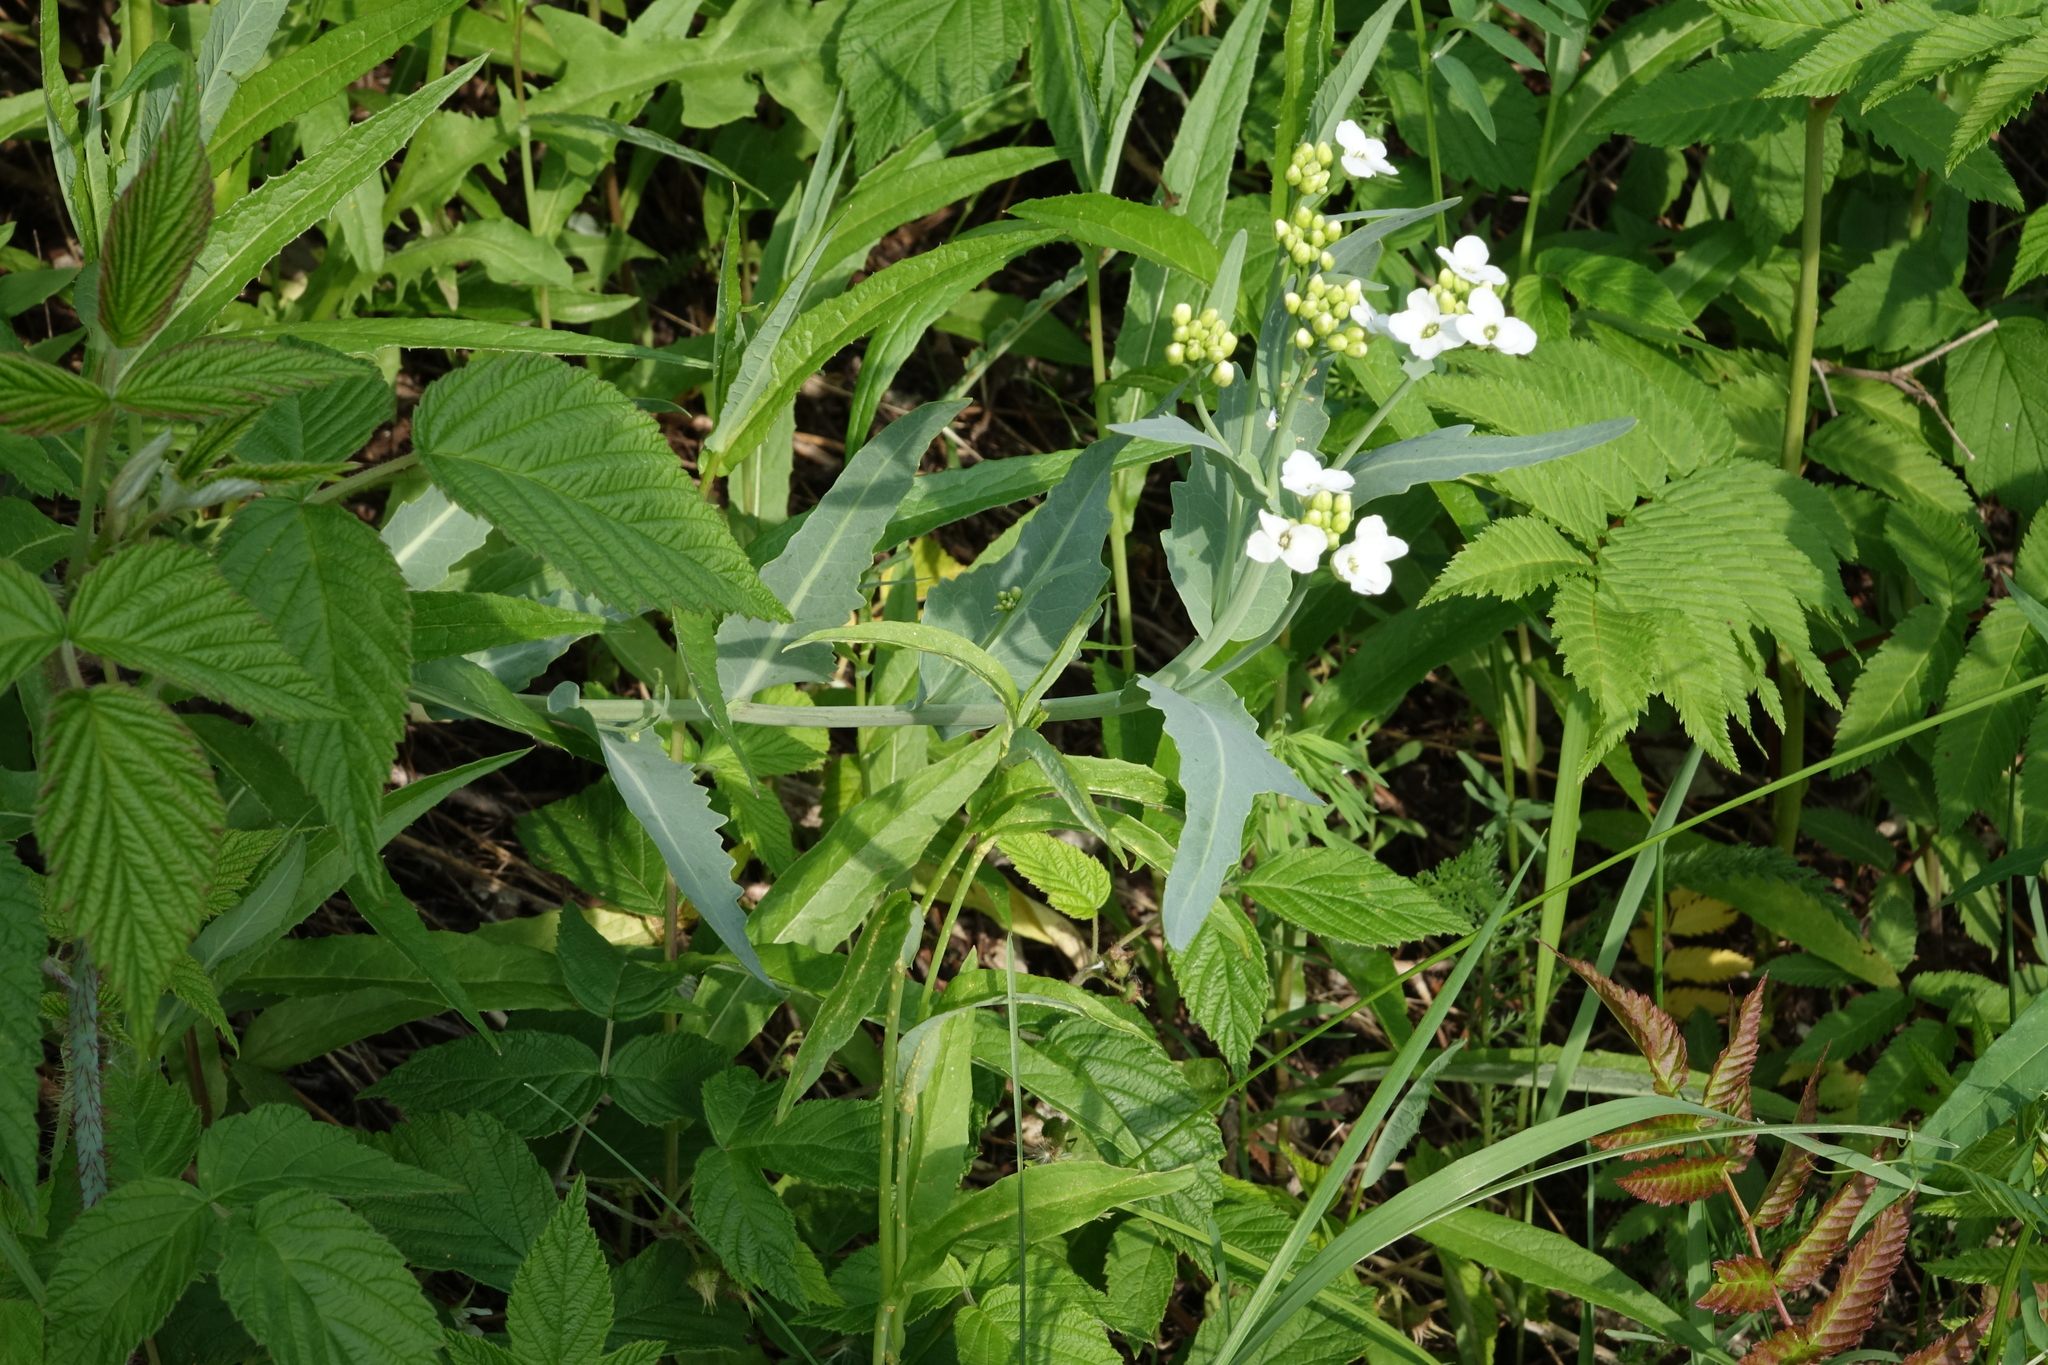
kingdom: Plantae
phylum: Tracheophyta
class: Magnoliopsida
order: Brassicales
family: Brassicaceae
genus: Armoracia
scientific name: Armoracia sisymbrioides
